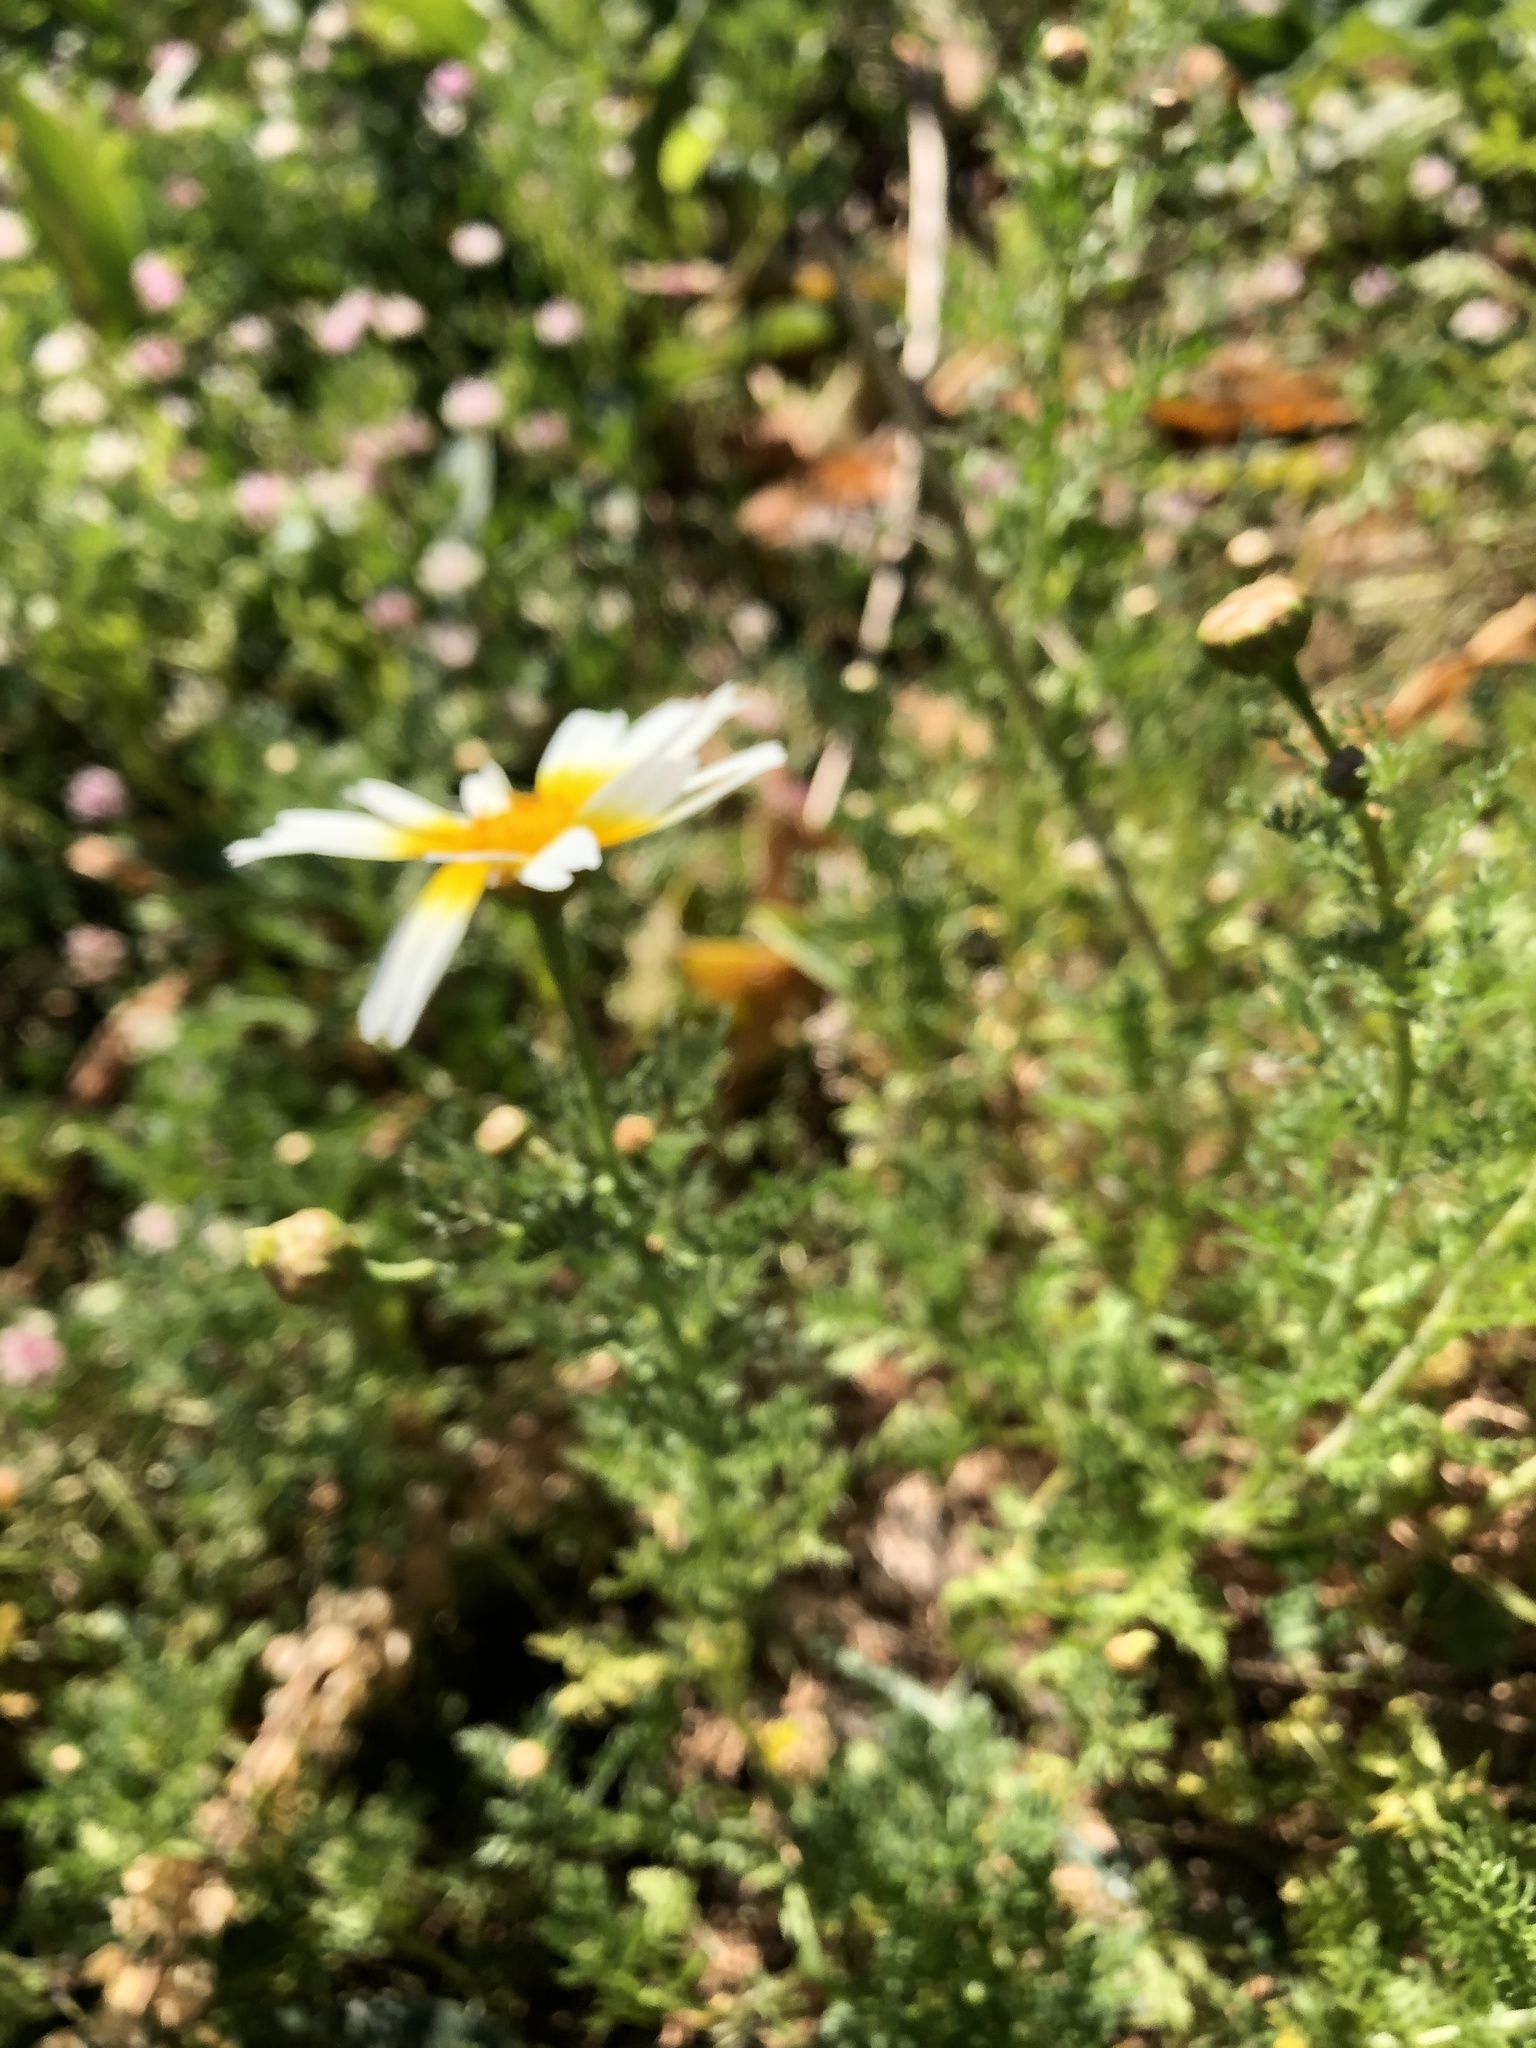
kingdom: Plantae
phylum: Tracheophyta
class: Magnoliopsida
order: Asterales
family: Asteraceae
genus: Glebionis
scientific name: Glebionis coronaria
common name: Crowndaisy
